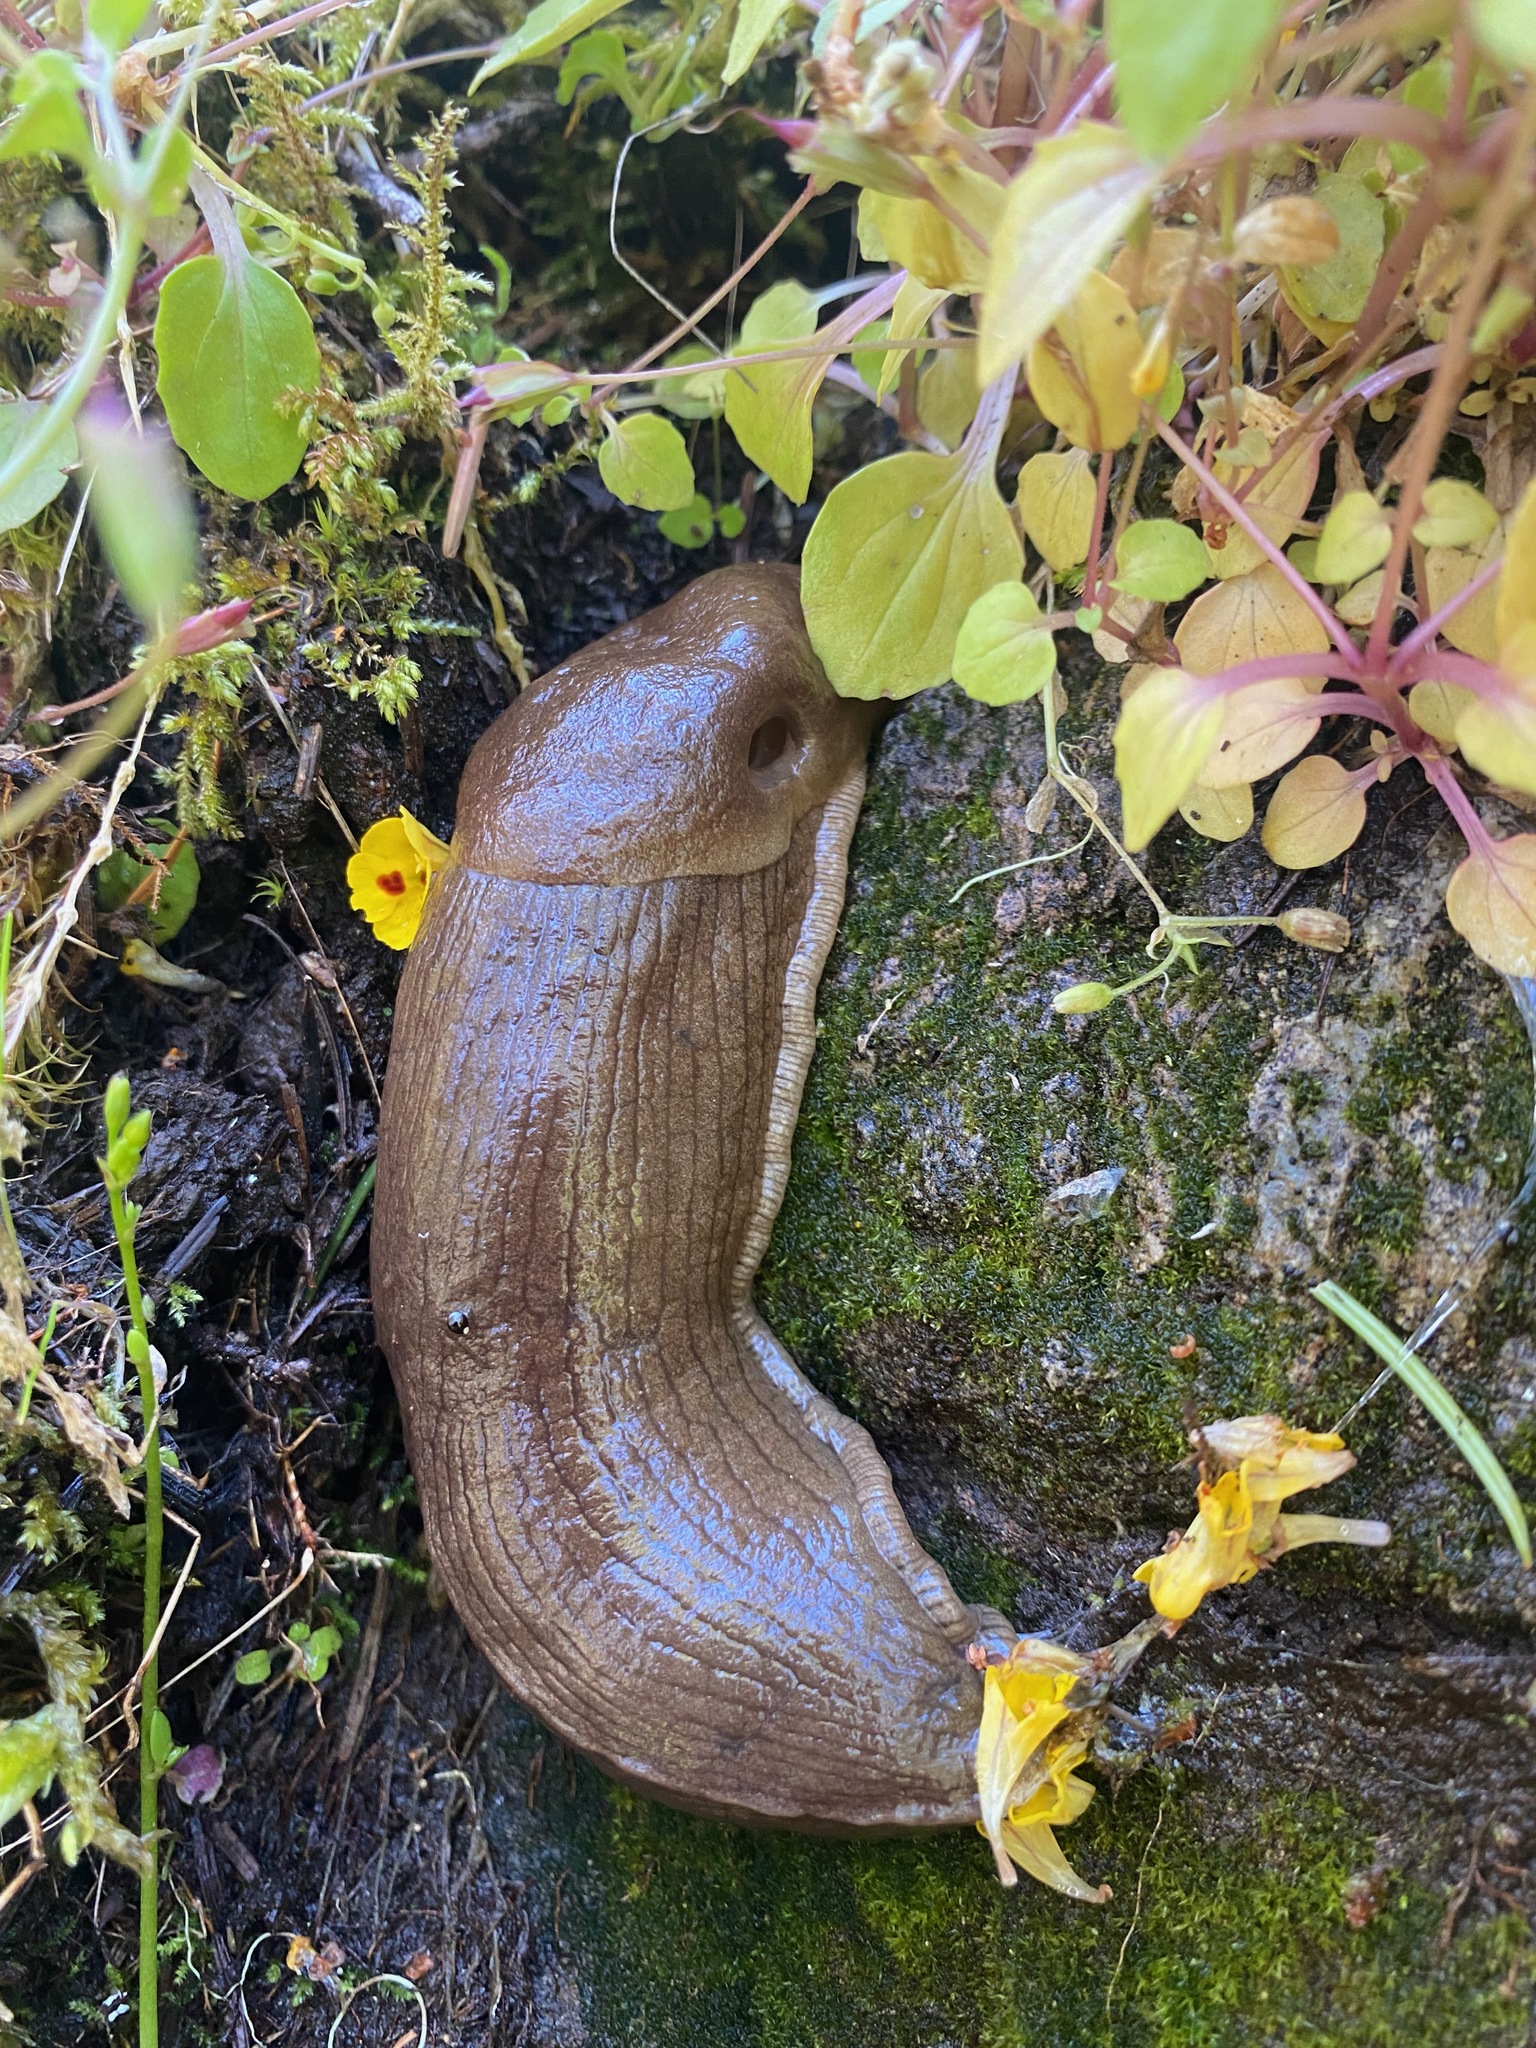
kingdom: Animalia
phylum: Mollusca
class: Gastropoda
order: Stylommatophora
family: Ariolimacidae
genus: Ariolimax
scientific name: Ariolimax columbianus
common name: Pacific banana slug
